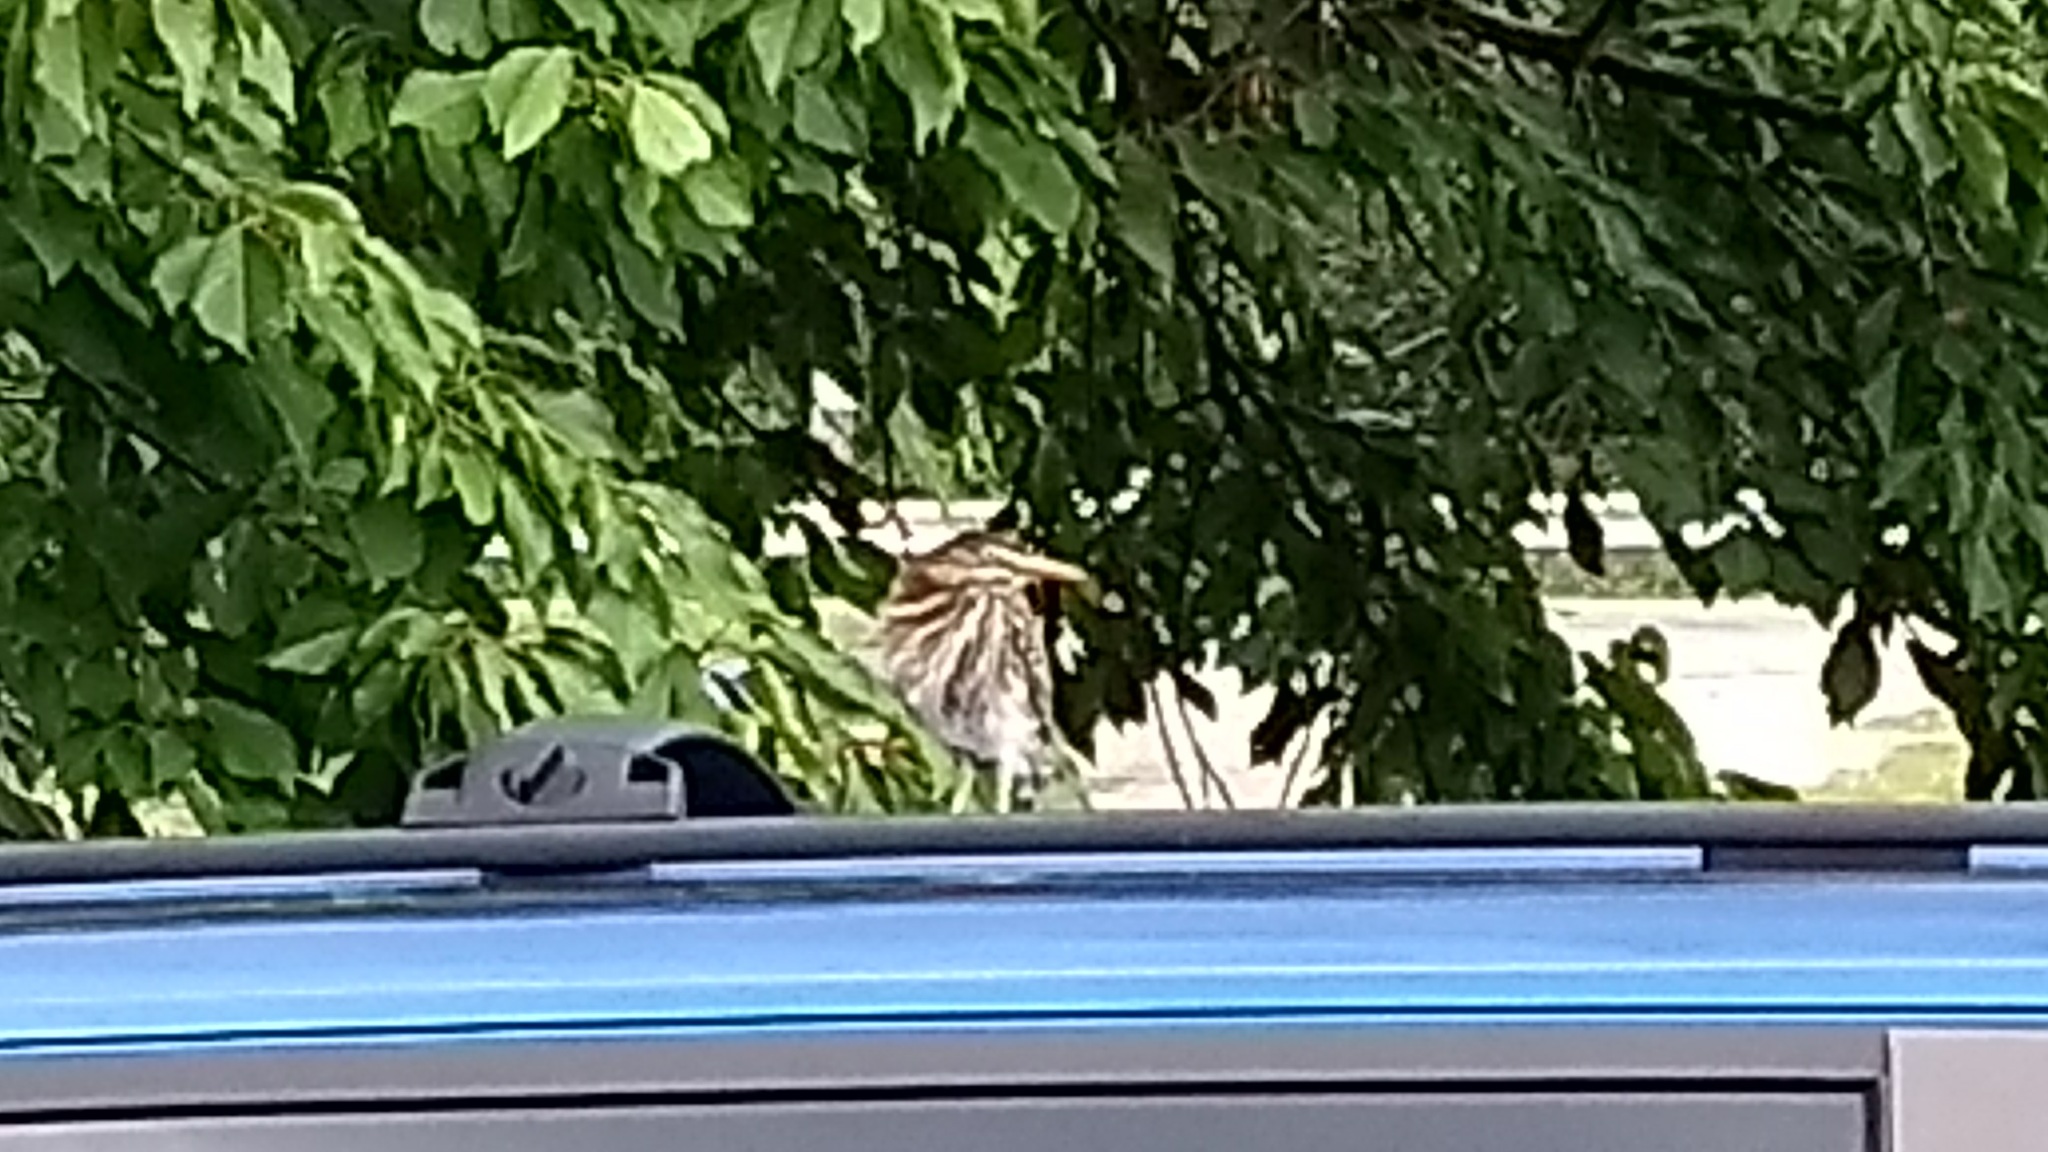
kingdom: Animalia
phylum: Chordata
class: Aves
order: Pelecaniformes
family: Ardeidae
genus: Butorides
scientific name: Butorides virescens
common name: Green heron
